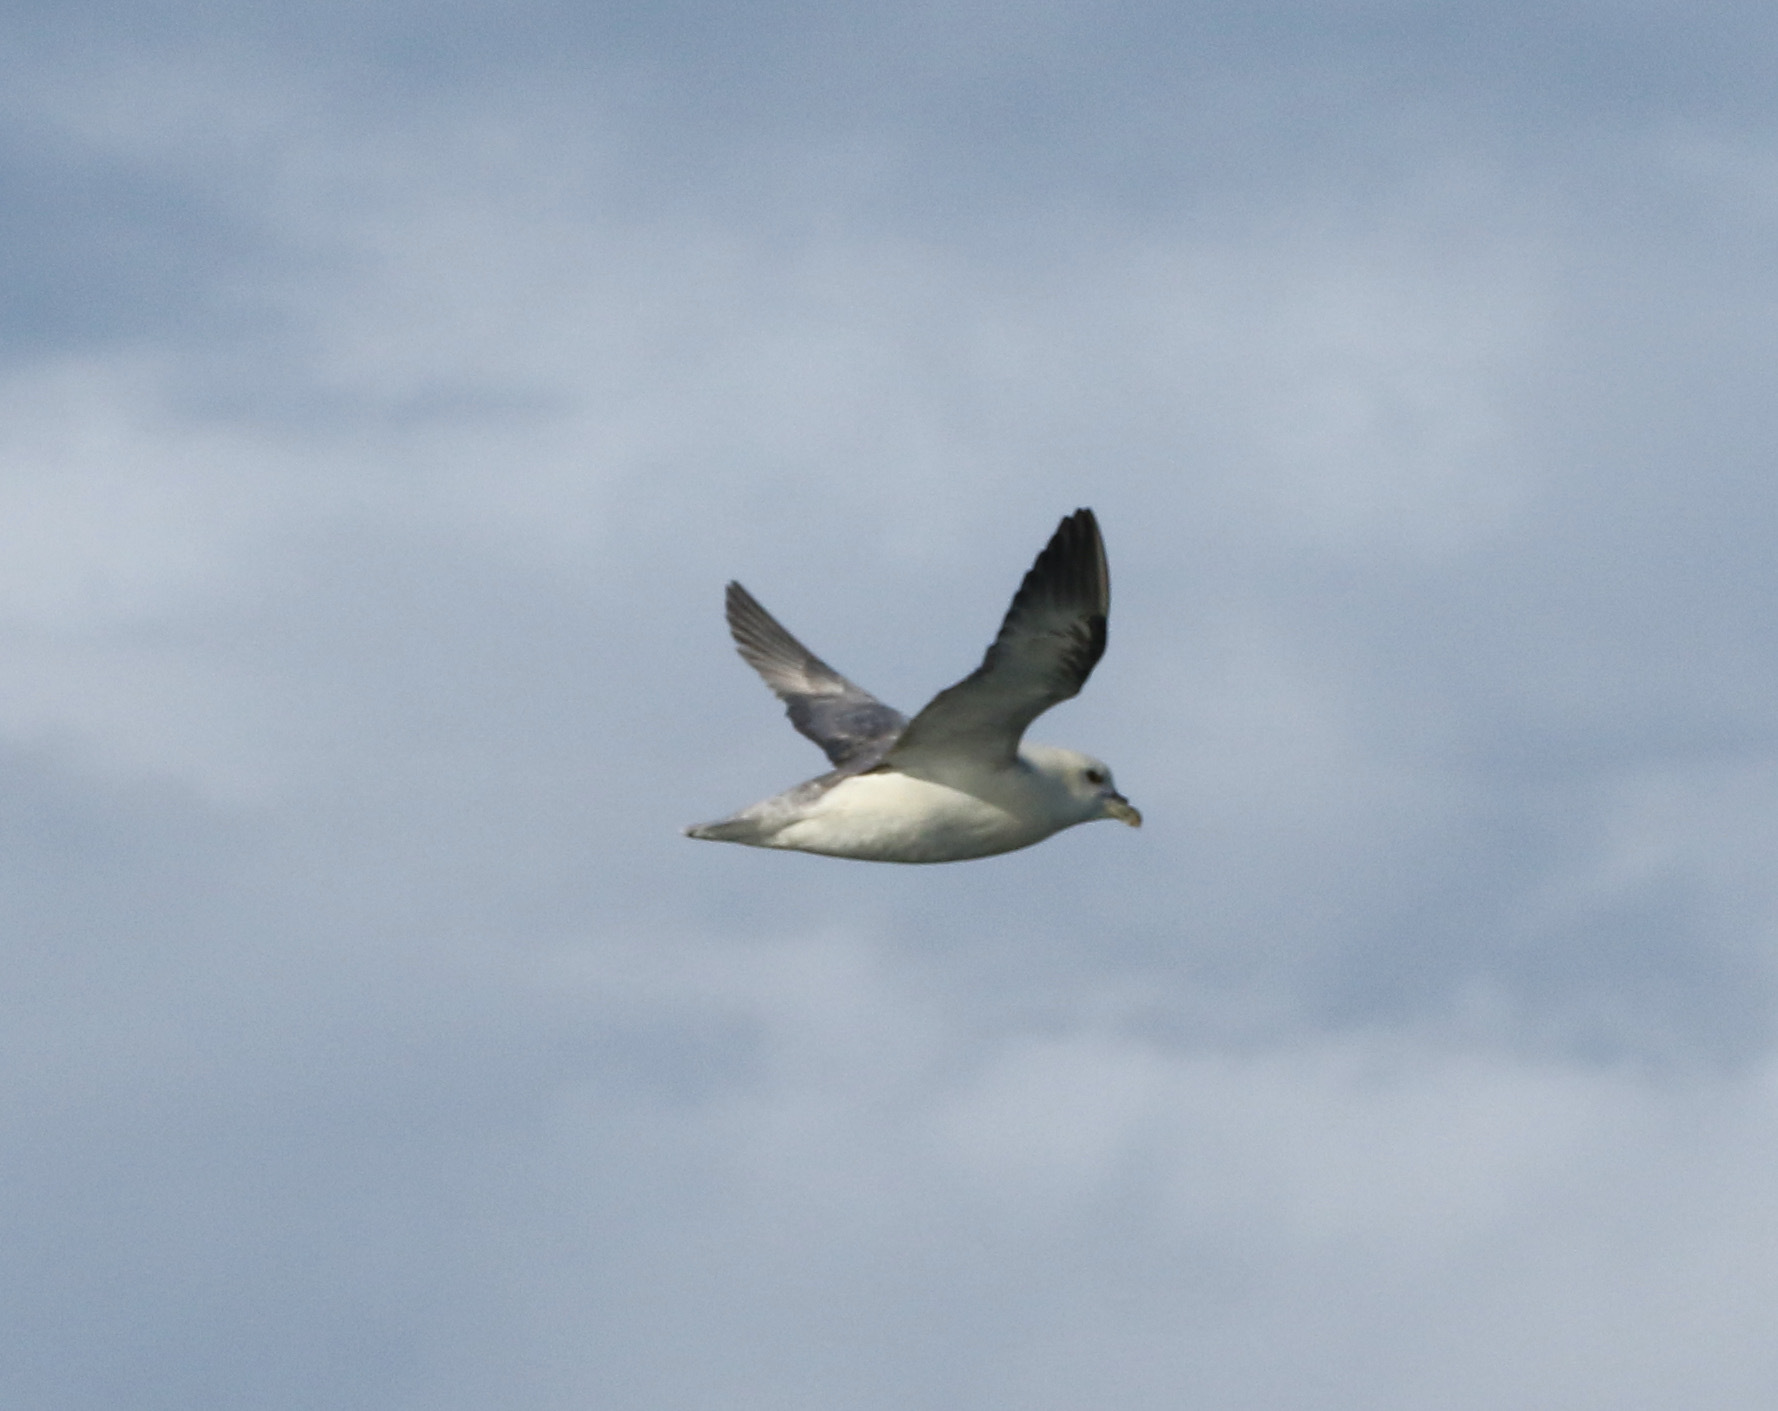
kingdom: Animalia
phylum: Chordata
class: Aves
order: Procellariiformes
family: Procellariidae
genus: Fulmarus
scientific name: Fulmarus glacialis
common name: Northern fulmar
